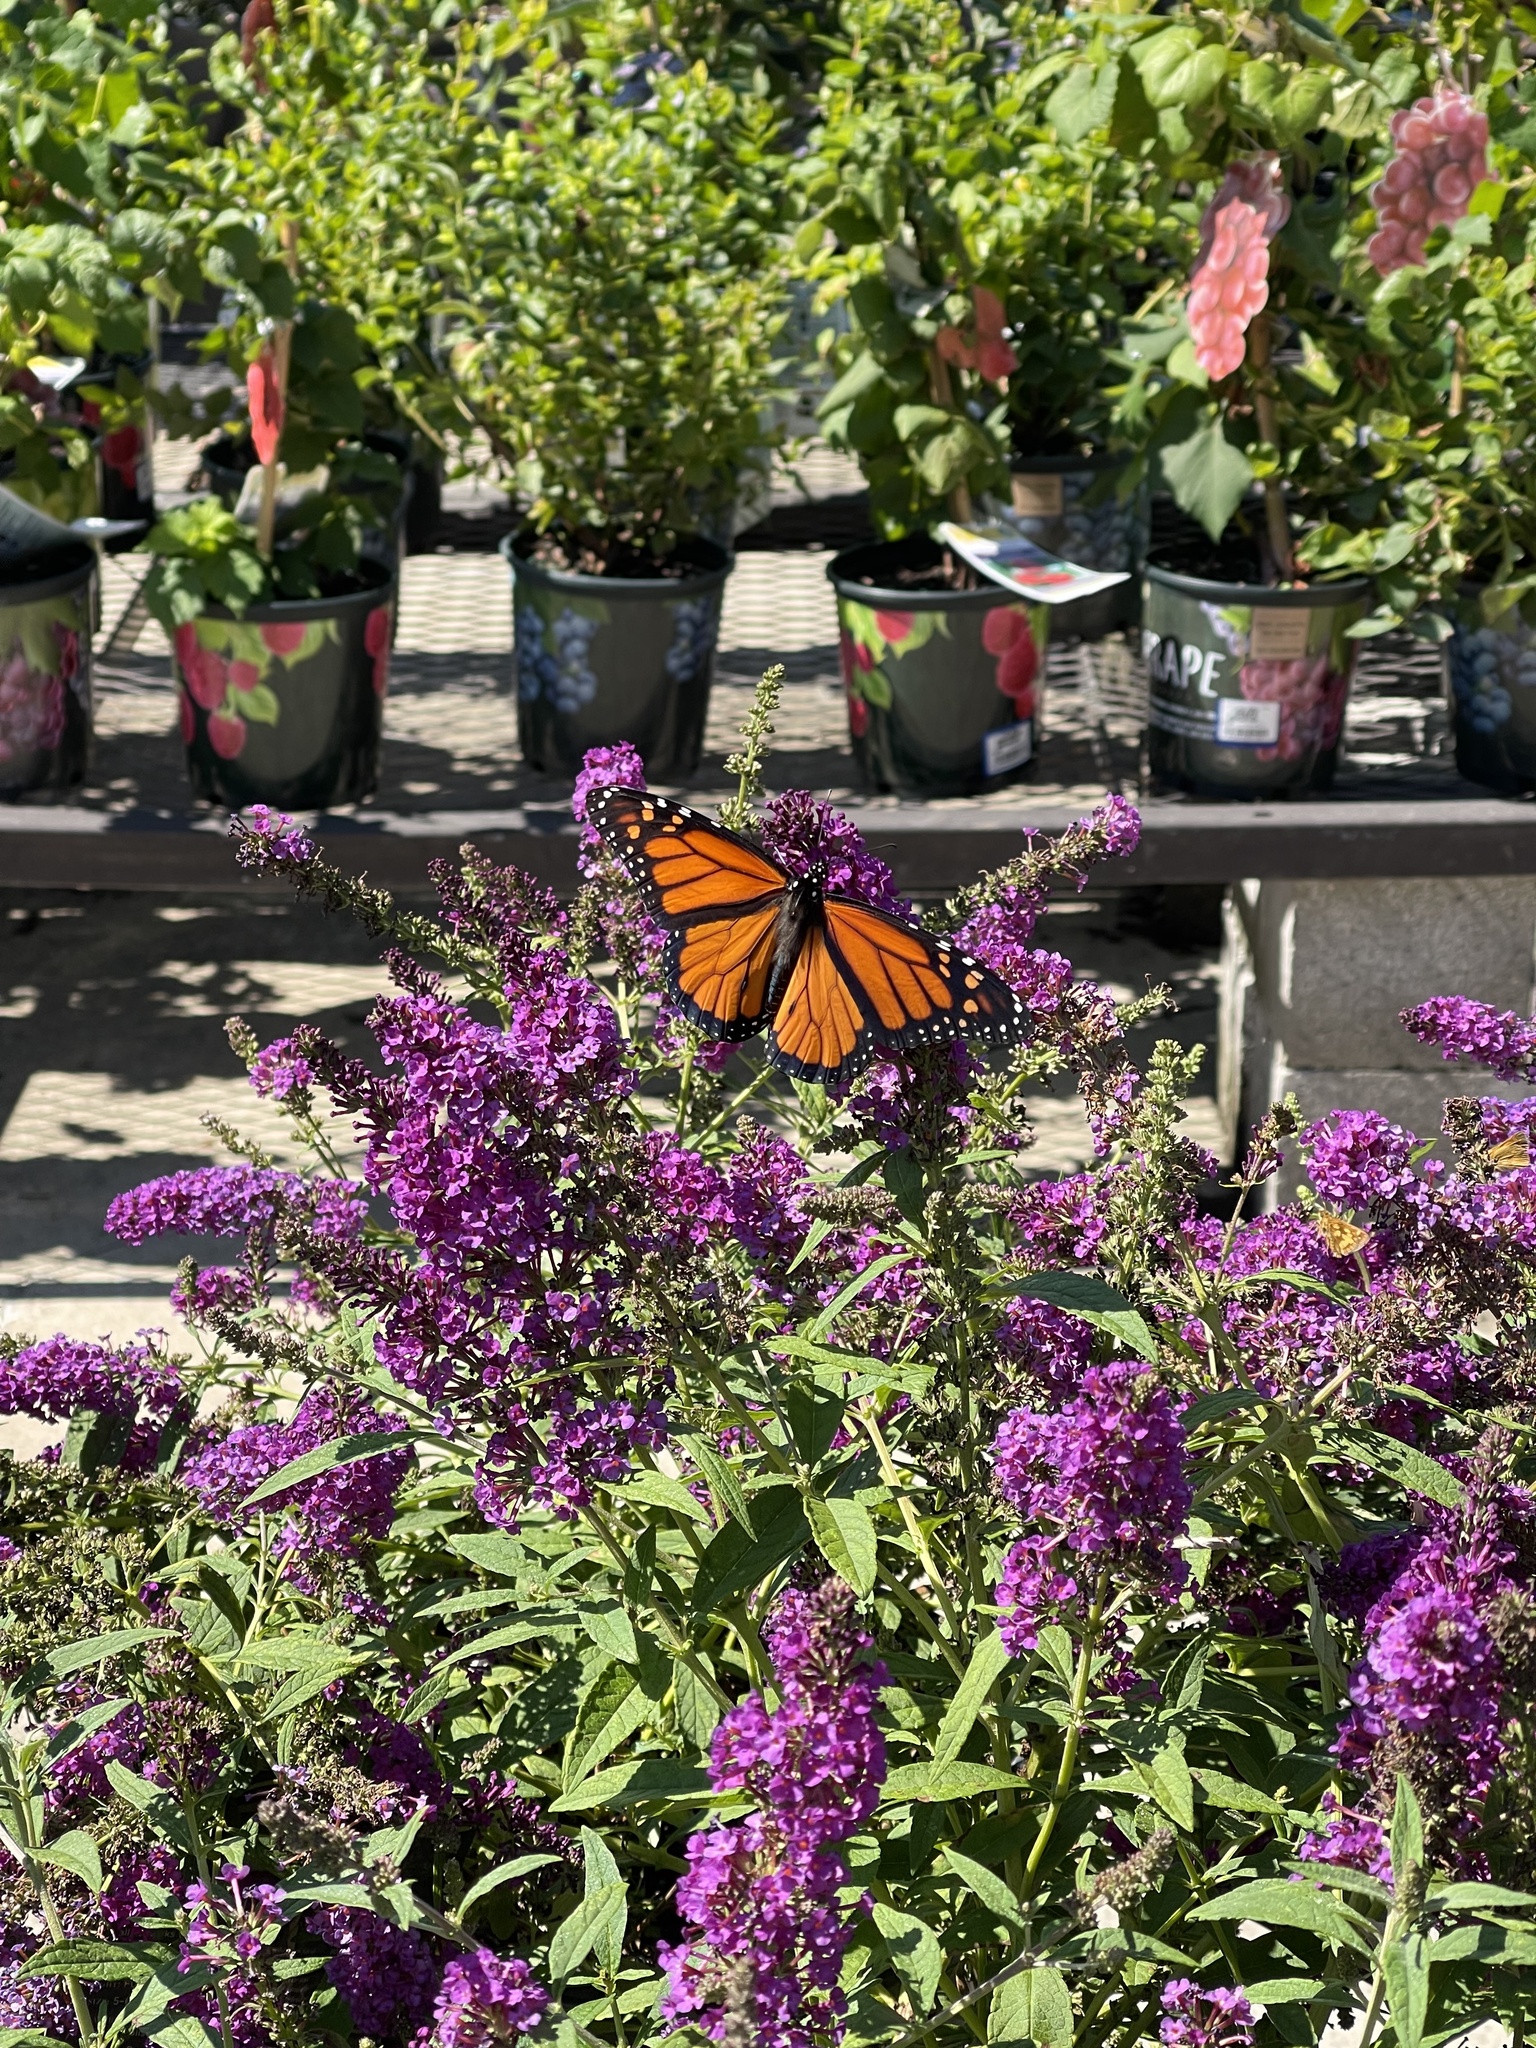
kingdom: Animalia
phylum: Arthropoda
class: Insecta
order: Lepidoptera
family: Nymphalidae
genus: Danaus
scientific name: Danaus plexippus
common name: Monarch
